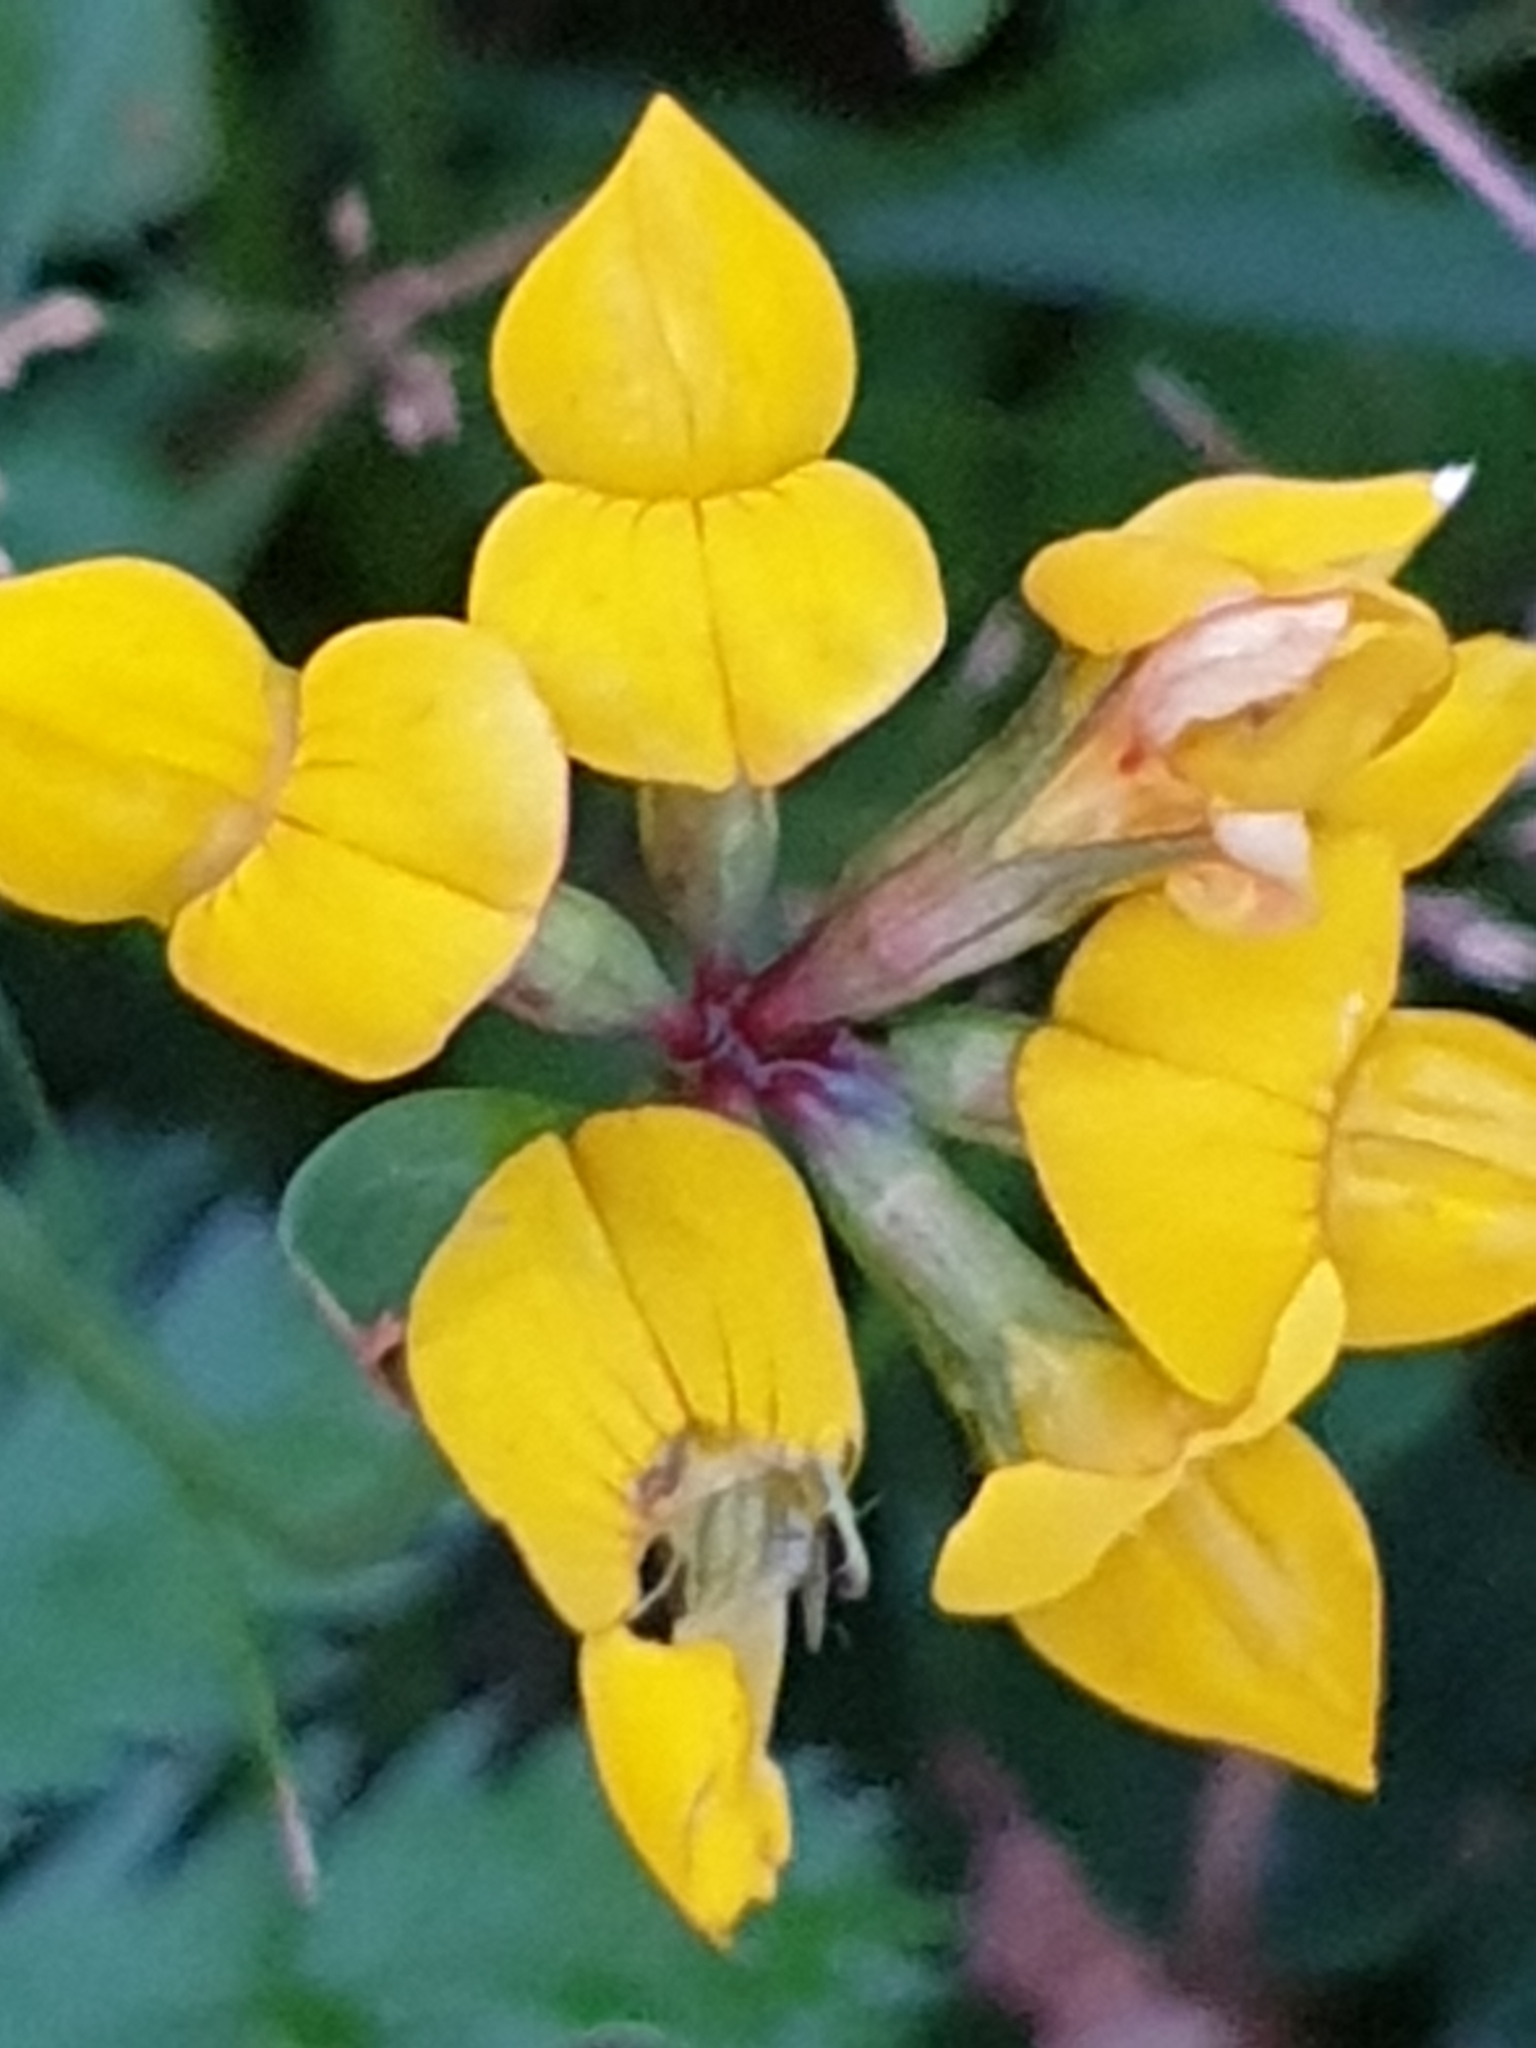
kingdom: Plantae
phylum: Tracheophyta
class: Magnoliopsida
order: Fabales
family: Fabaceae
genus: Lotus
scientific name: Lotus corniculatus
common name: Common bird's-foot-trefoil
